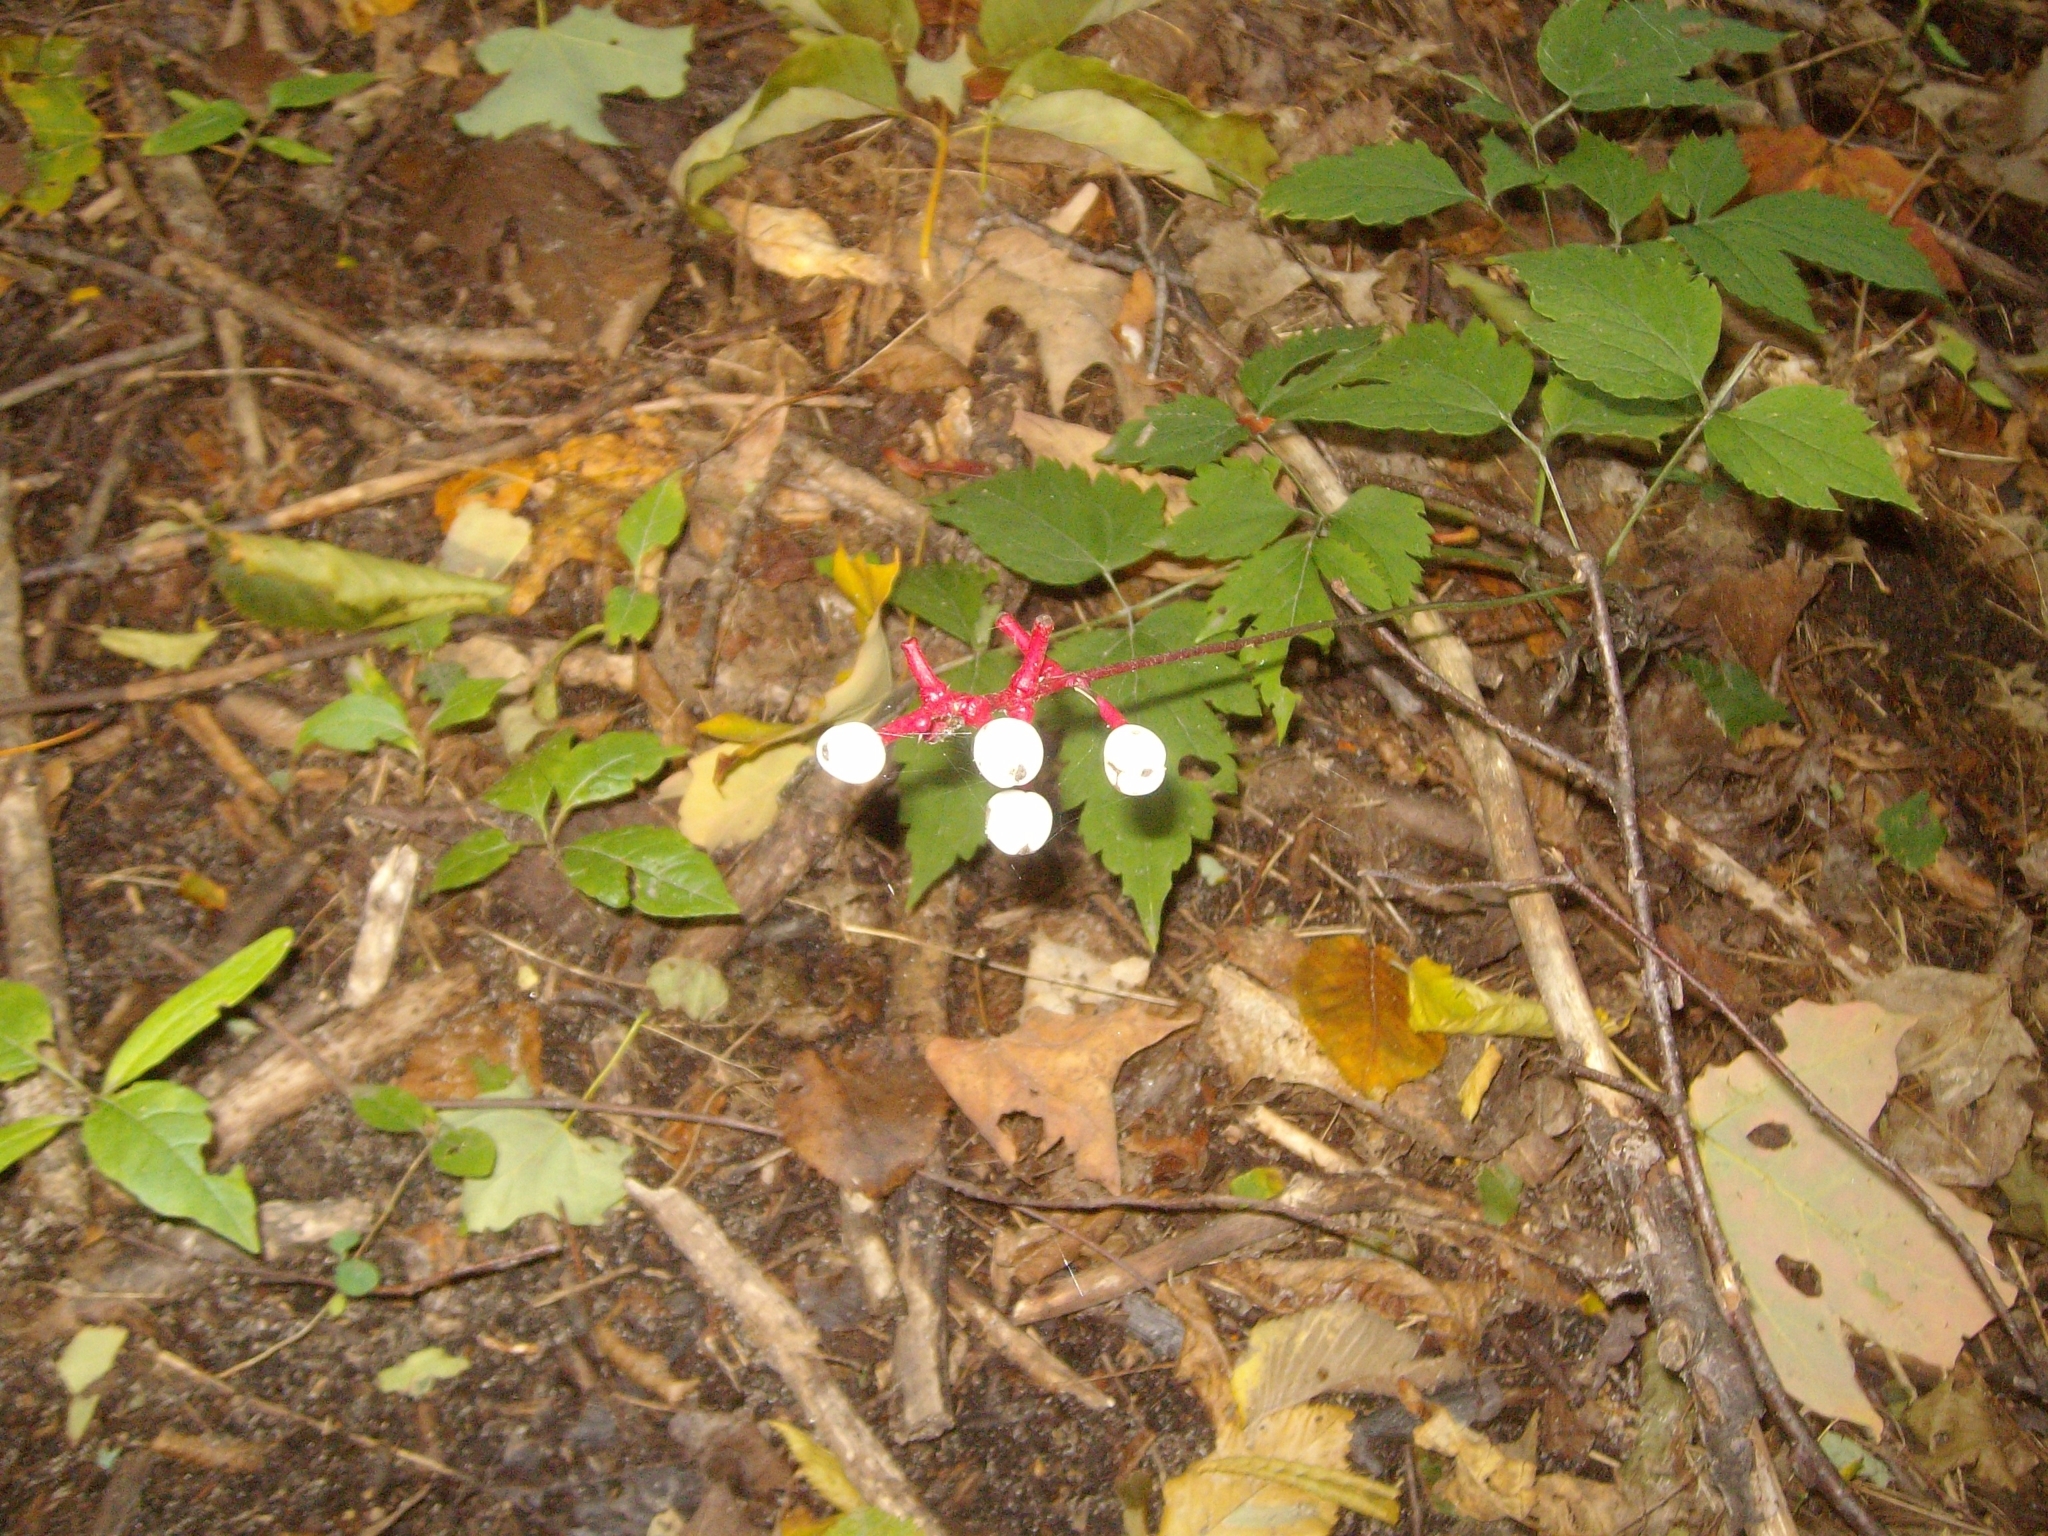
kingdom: Plantae
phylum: Tracheophyta
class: Magnoliopsida
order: Ranunculales
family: Ranunculaceae
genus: Actaea
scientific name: Actaea pachypoda
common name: Doll's-eyes
